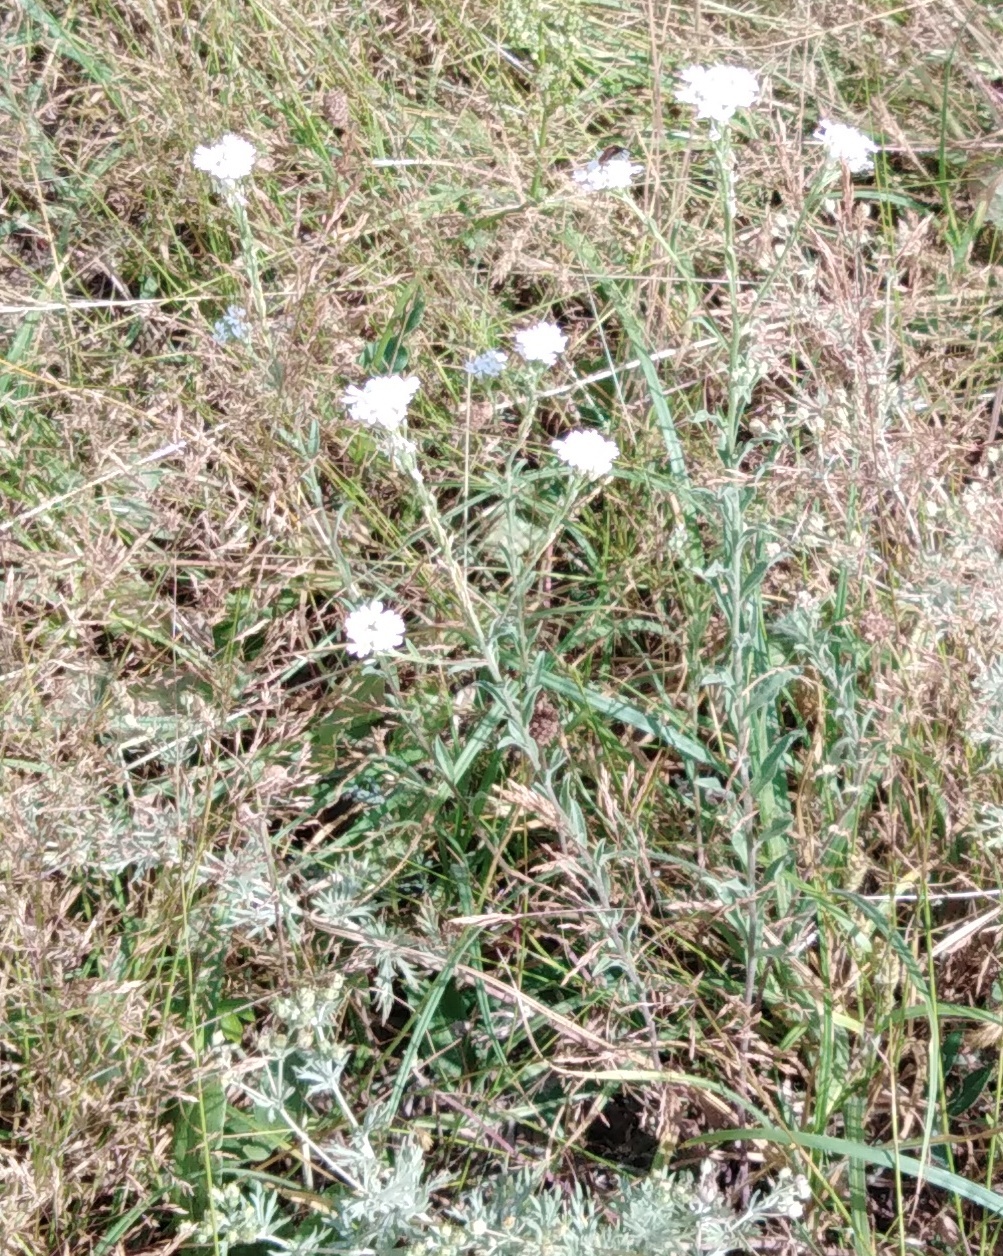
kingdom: Plantae
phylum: Tracheophyta
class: Magnoliopsida
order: Brassicales
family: Brassicaceae
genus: Berteroa
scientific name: Berteroa incana
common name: Hoary alison
